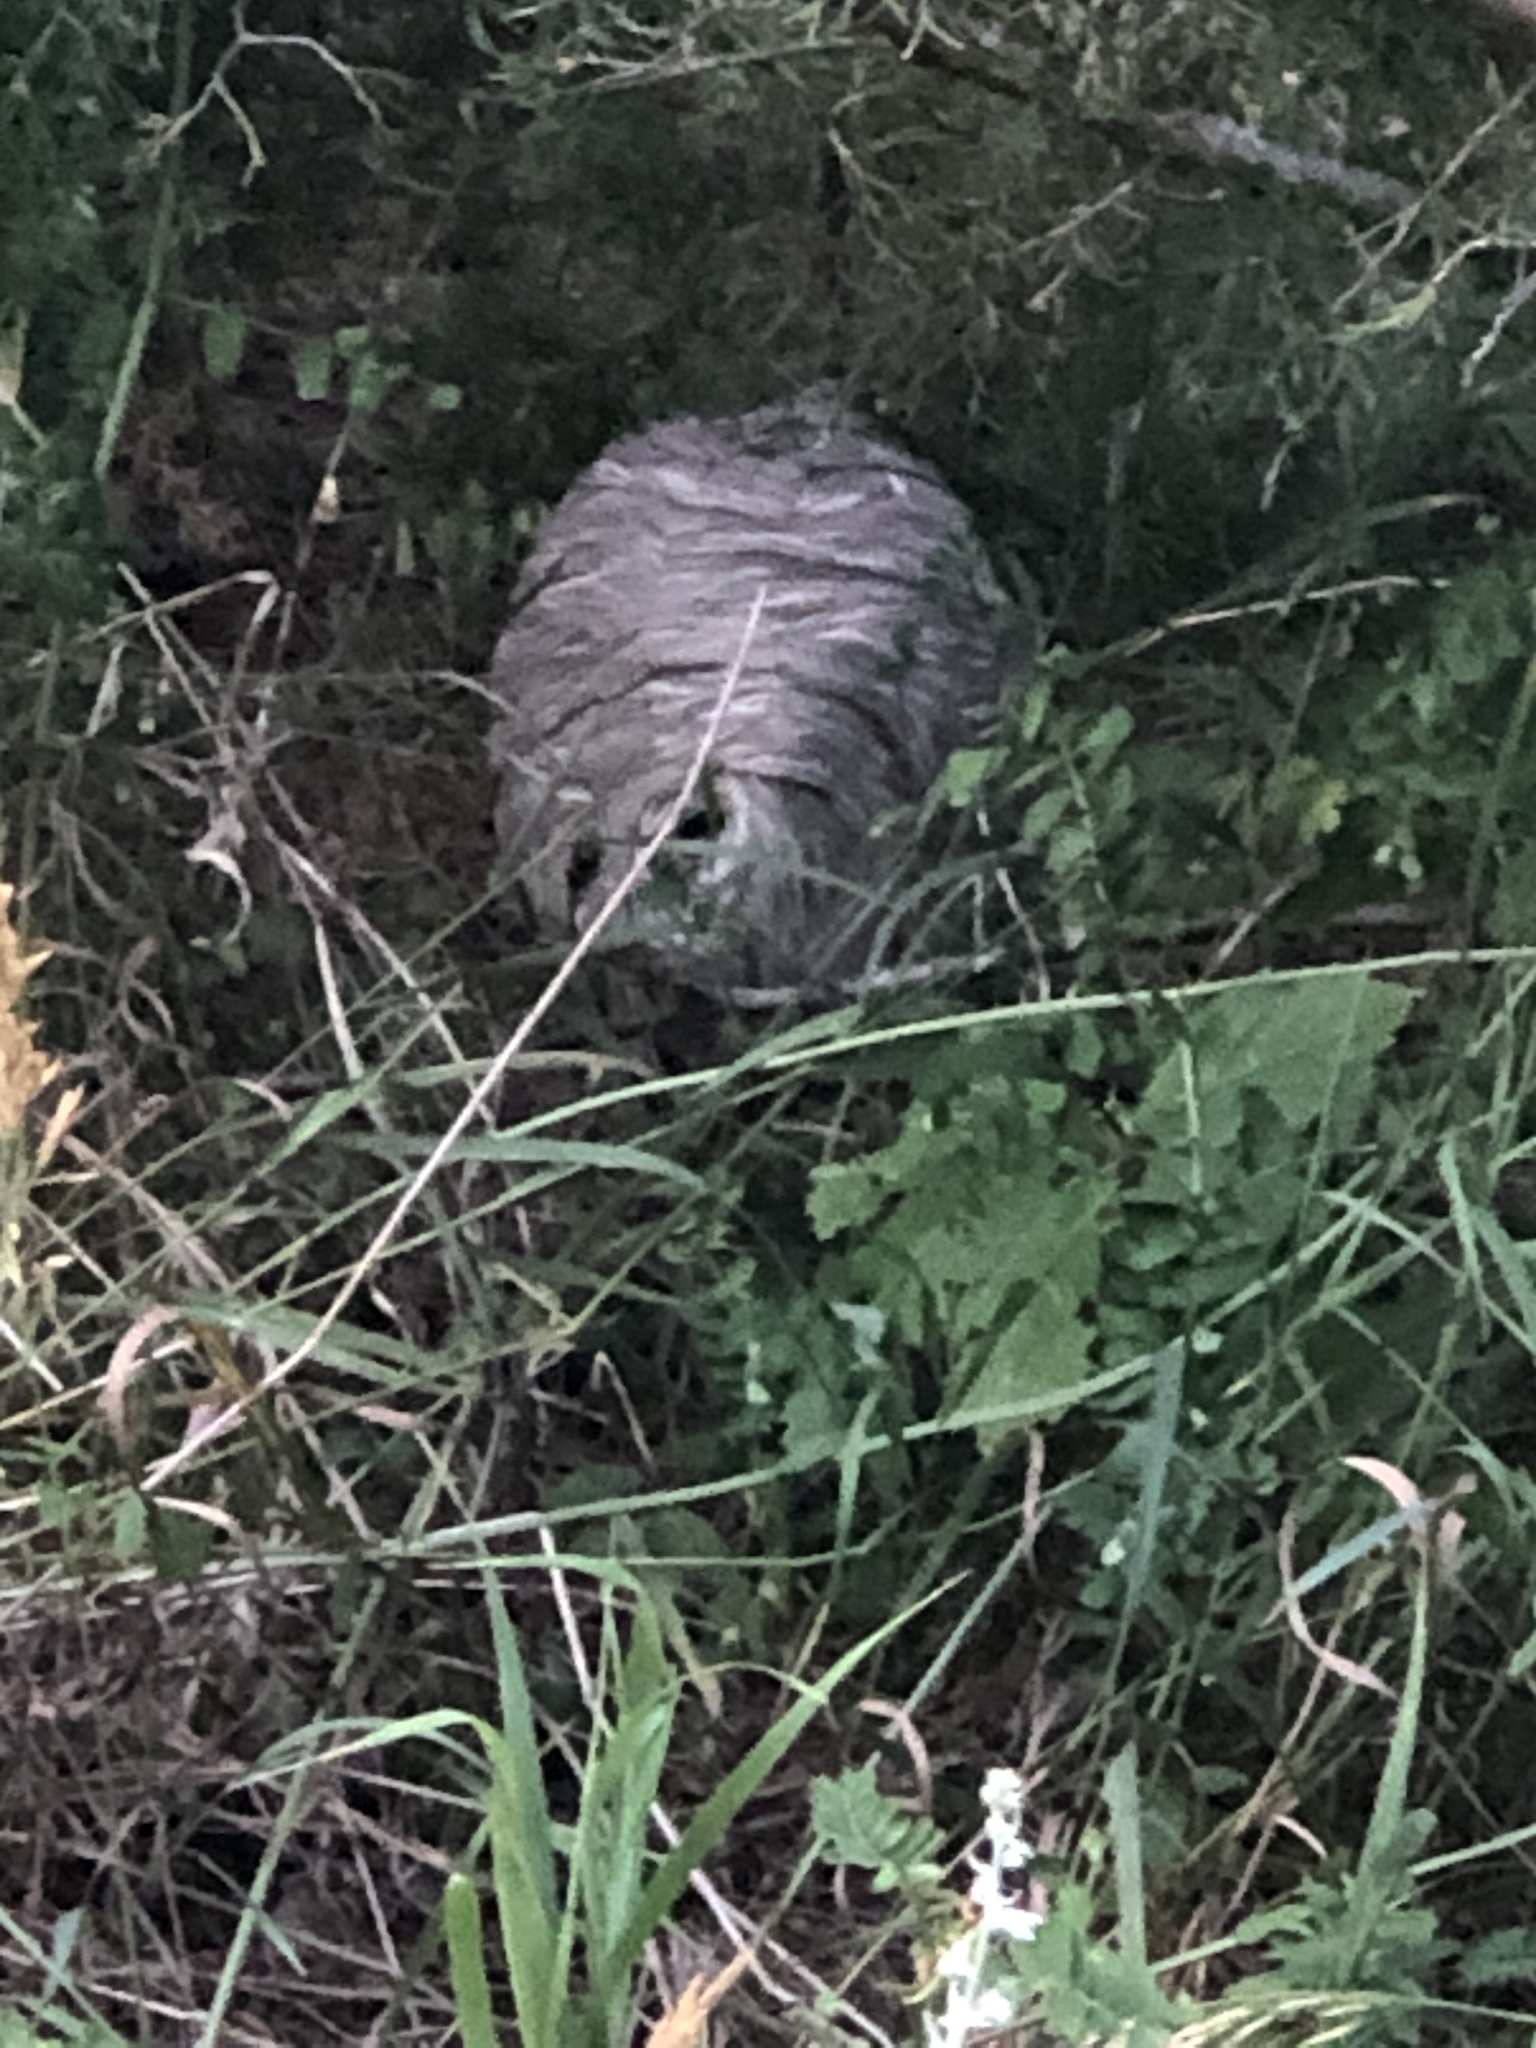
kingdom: Animalia
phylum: Arthropoda
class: Insecta
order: Hymenoptera
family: Vespidae
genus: Dolichovespula
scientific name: Dolichovespula
